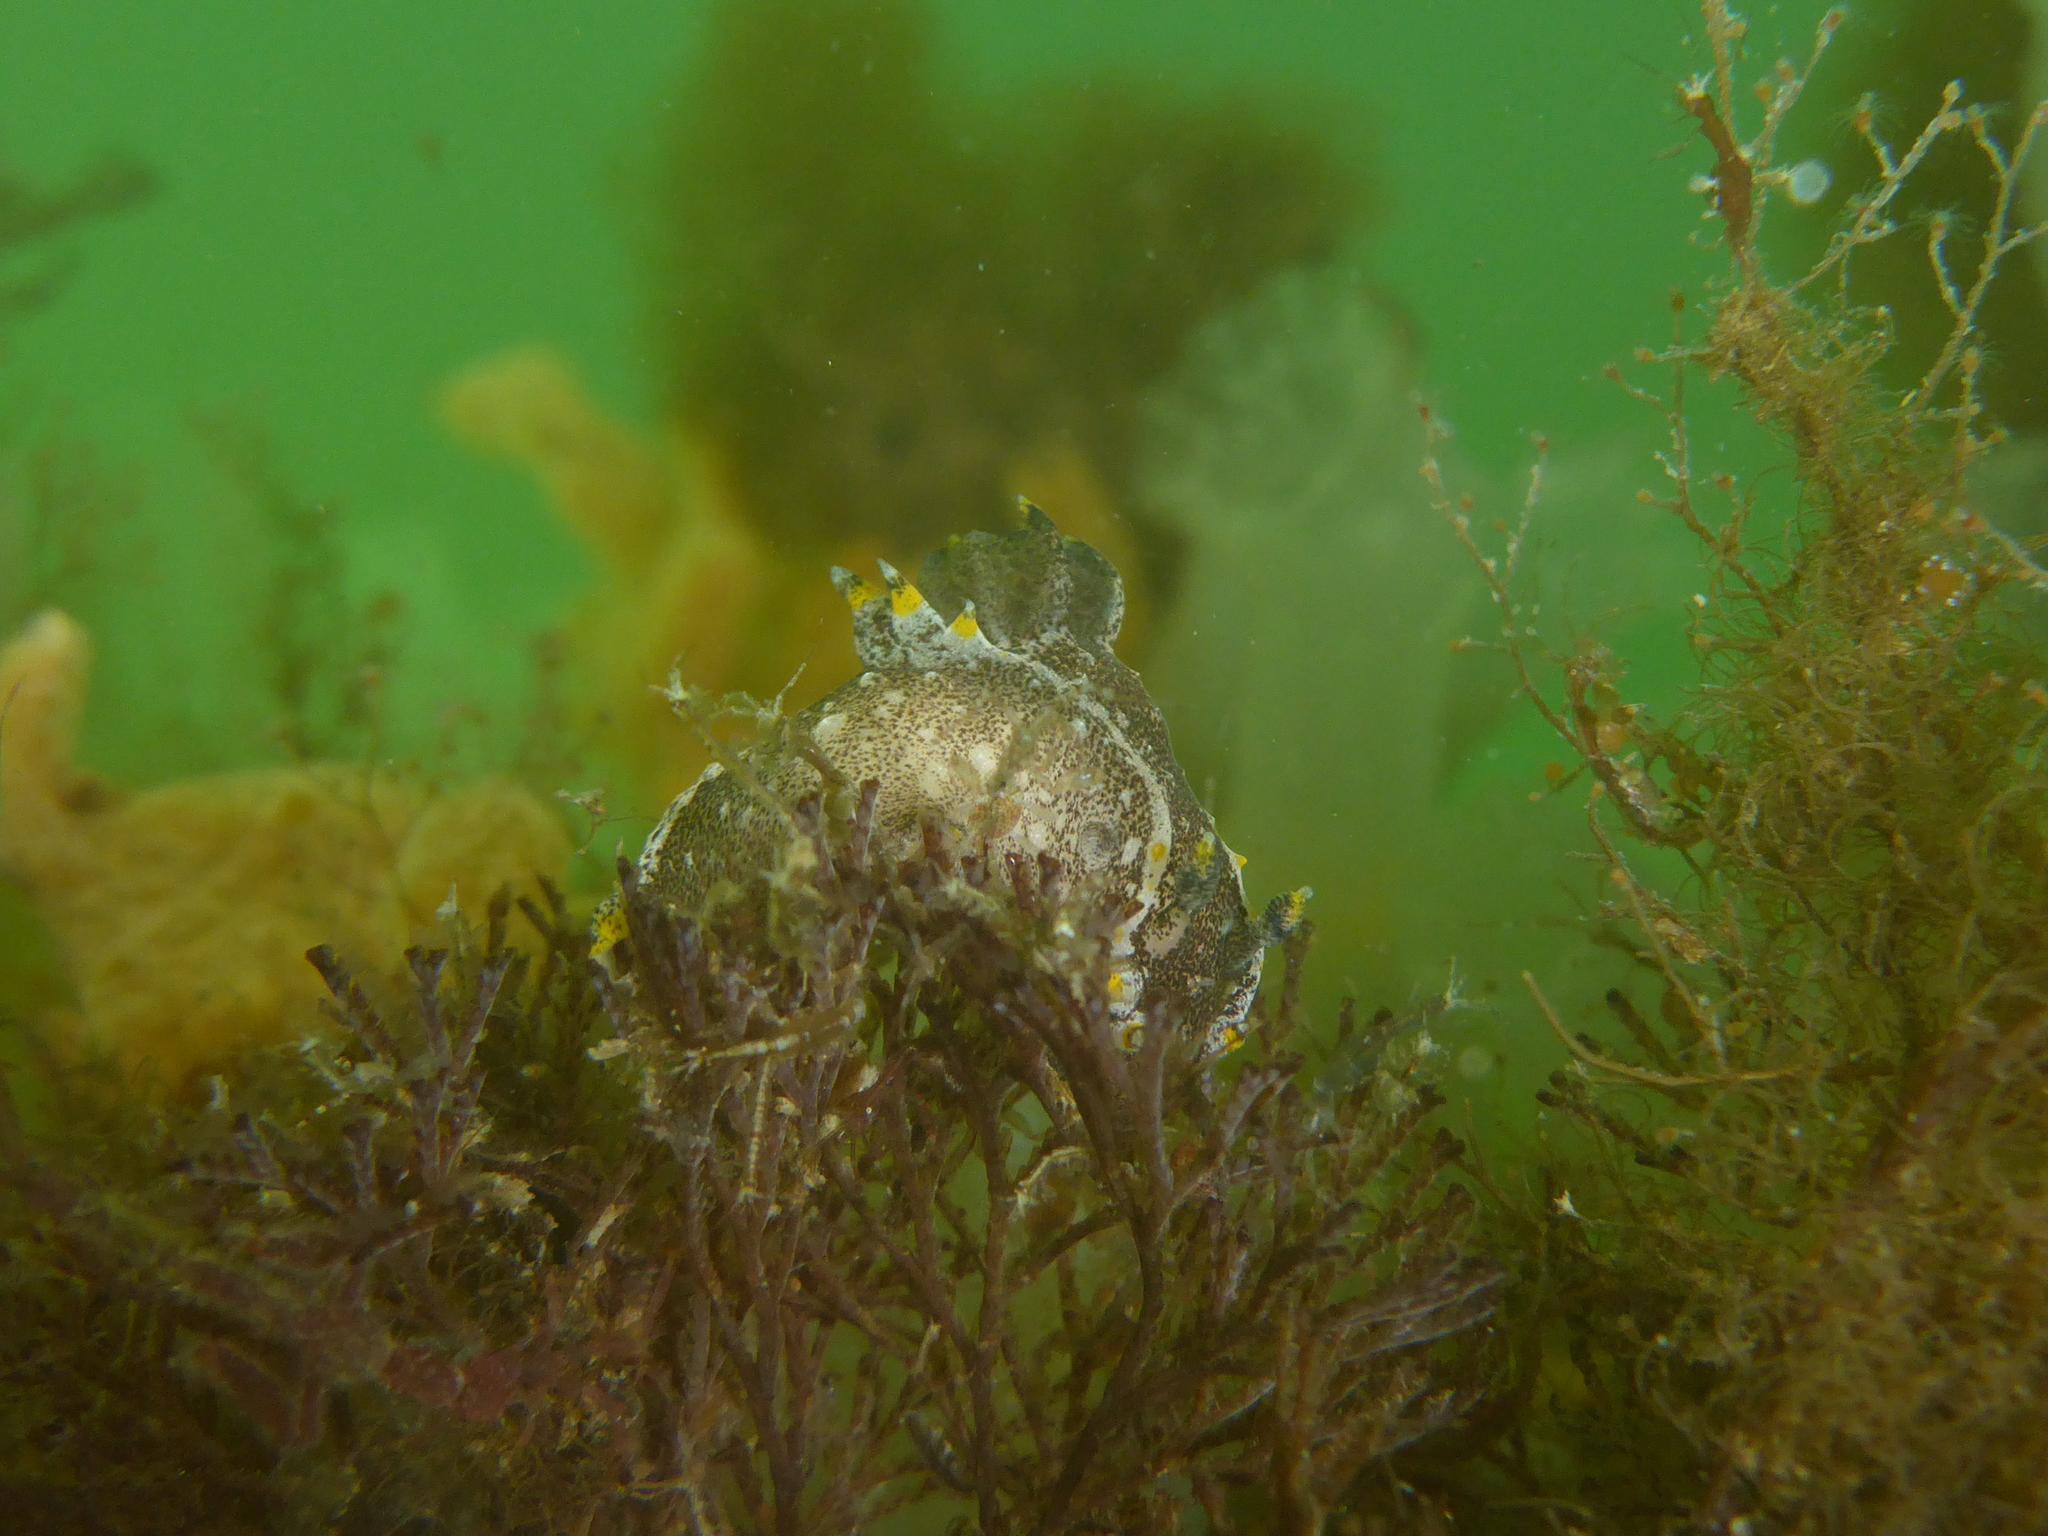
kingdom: Animalia
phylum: Mollusca
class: Gastropoda
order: Nudibranchia
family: Polyceridae
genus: Polycera
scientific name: Polycera hedgpethi
